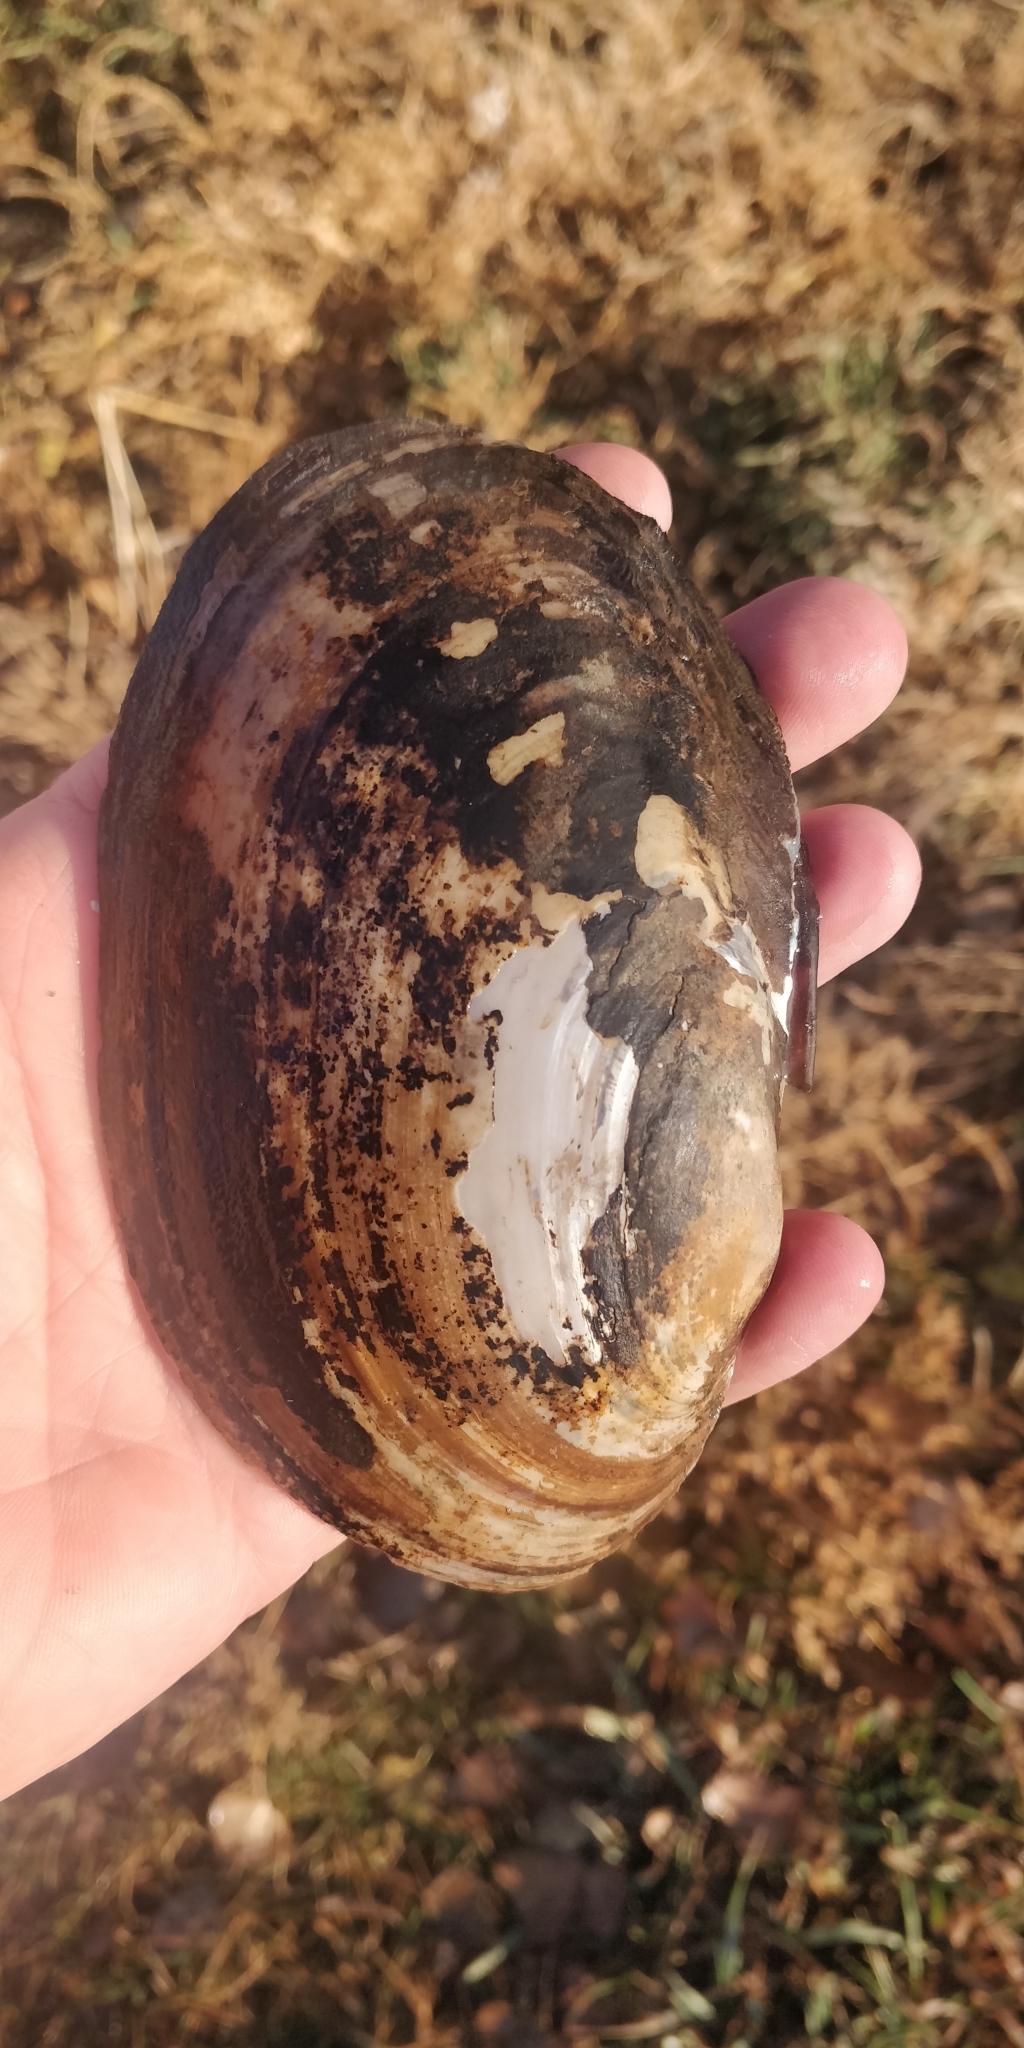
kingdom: Animalia
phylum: Mollusca
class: Bivalvia
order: Unionida
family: Unionidae
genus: Potamilus
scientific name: Potamilus fragilis
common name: Fragile papershell
